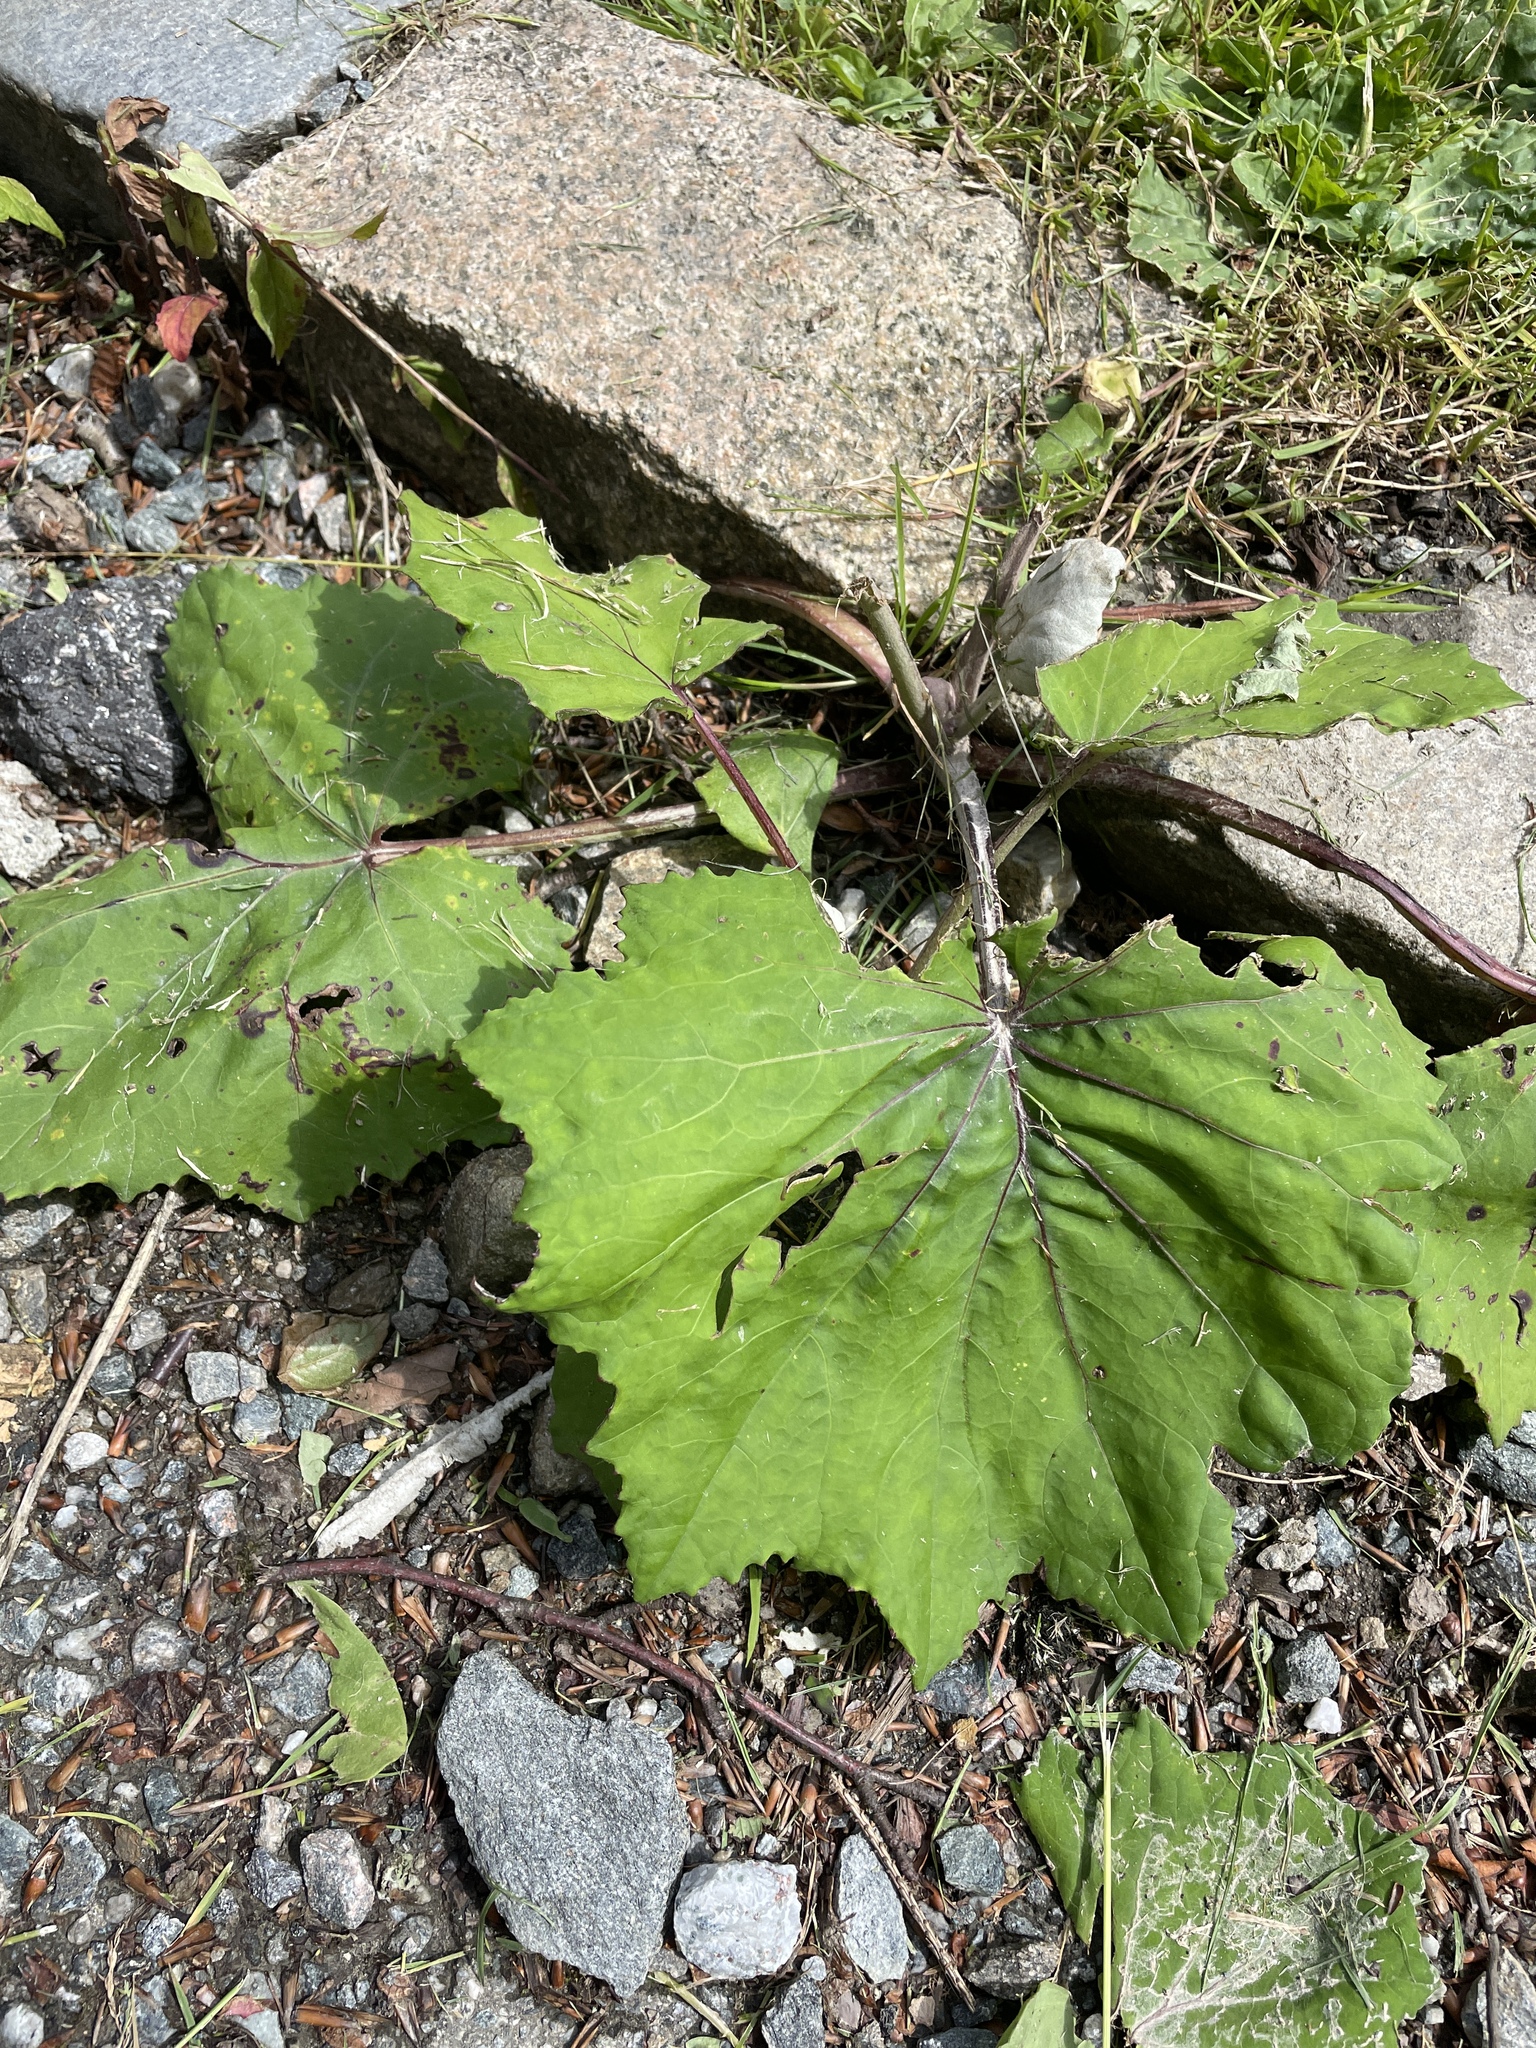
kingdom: Plantae
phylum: Tracheophyta
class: Magnoliopsida
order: Asterales
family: Asteraceae
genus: Tussilago
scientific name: Tussilago farfara
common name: Coltsfoot
